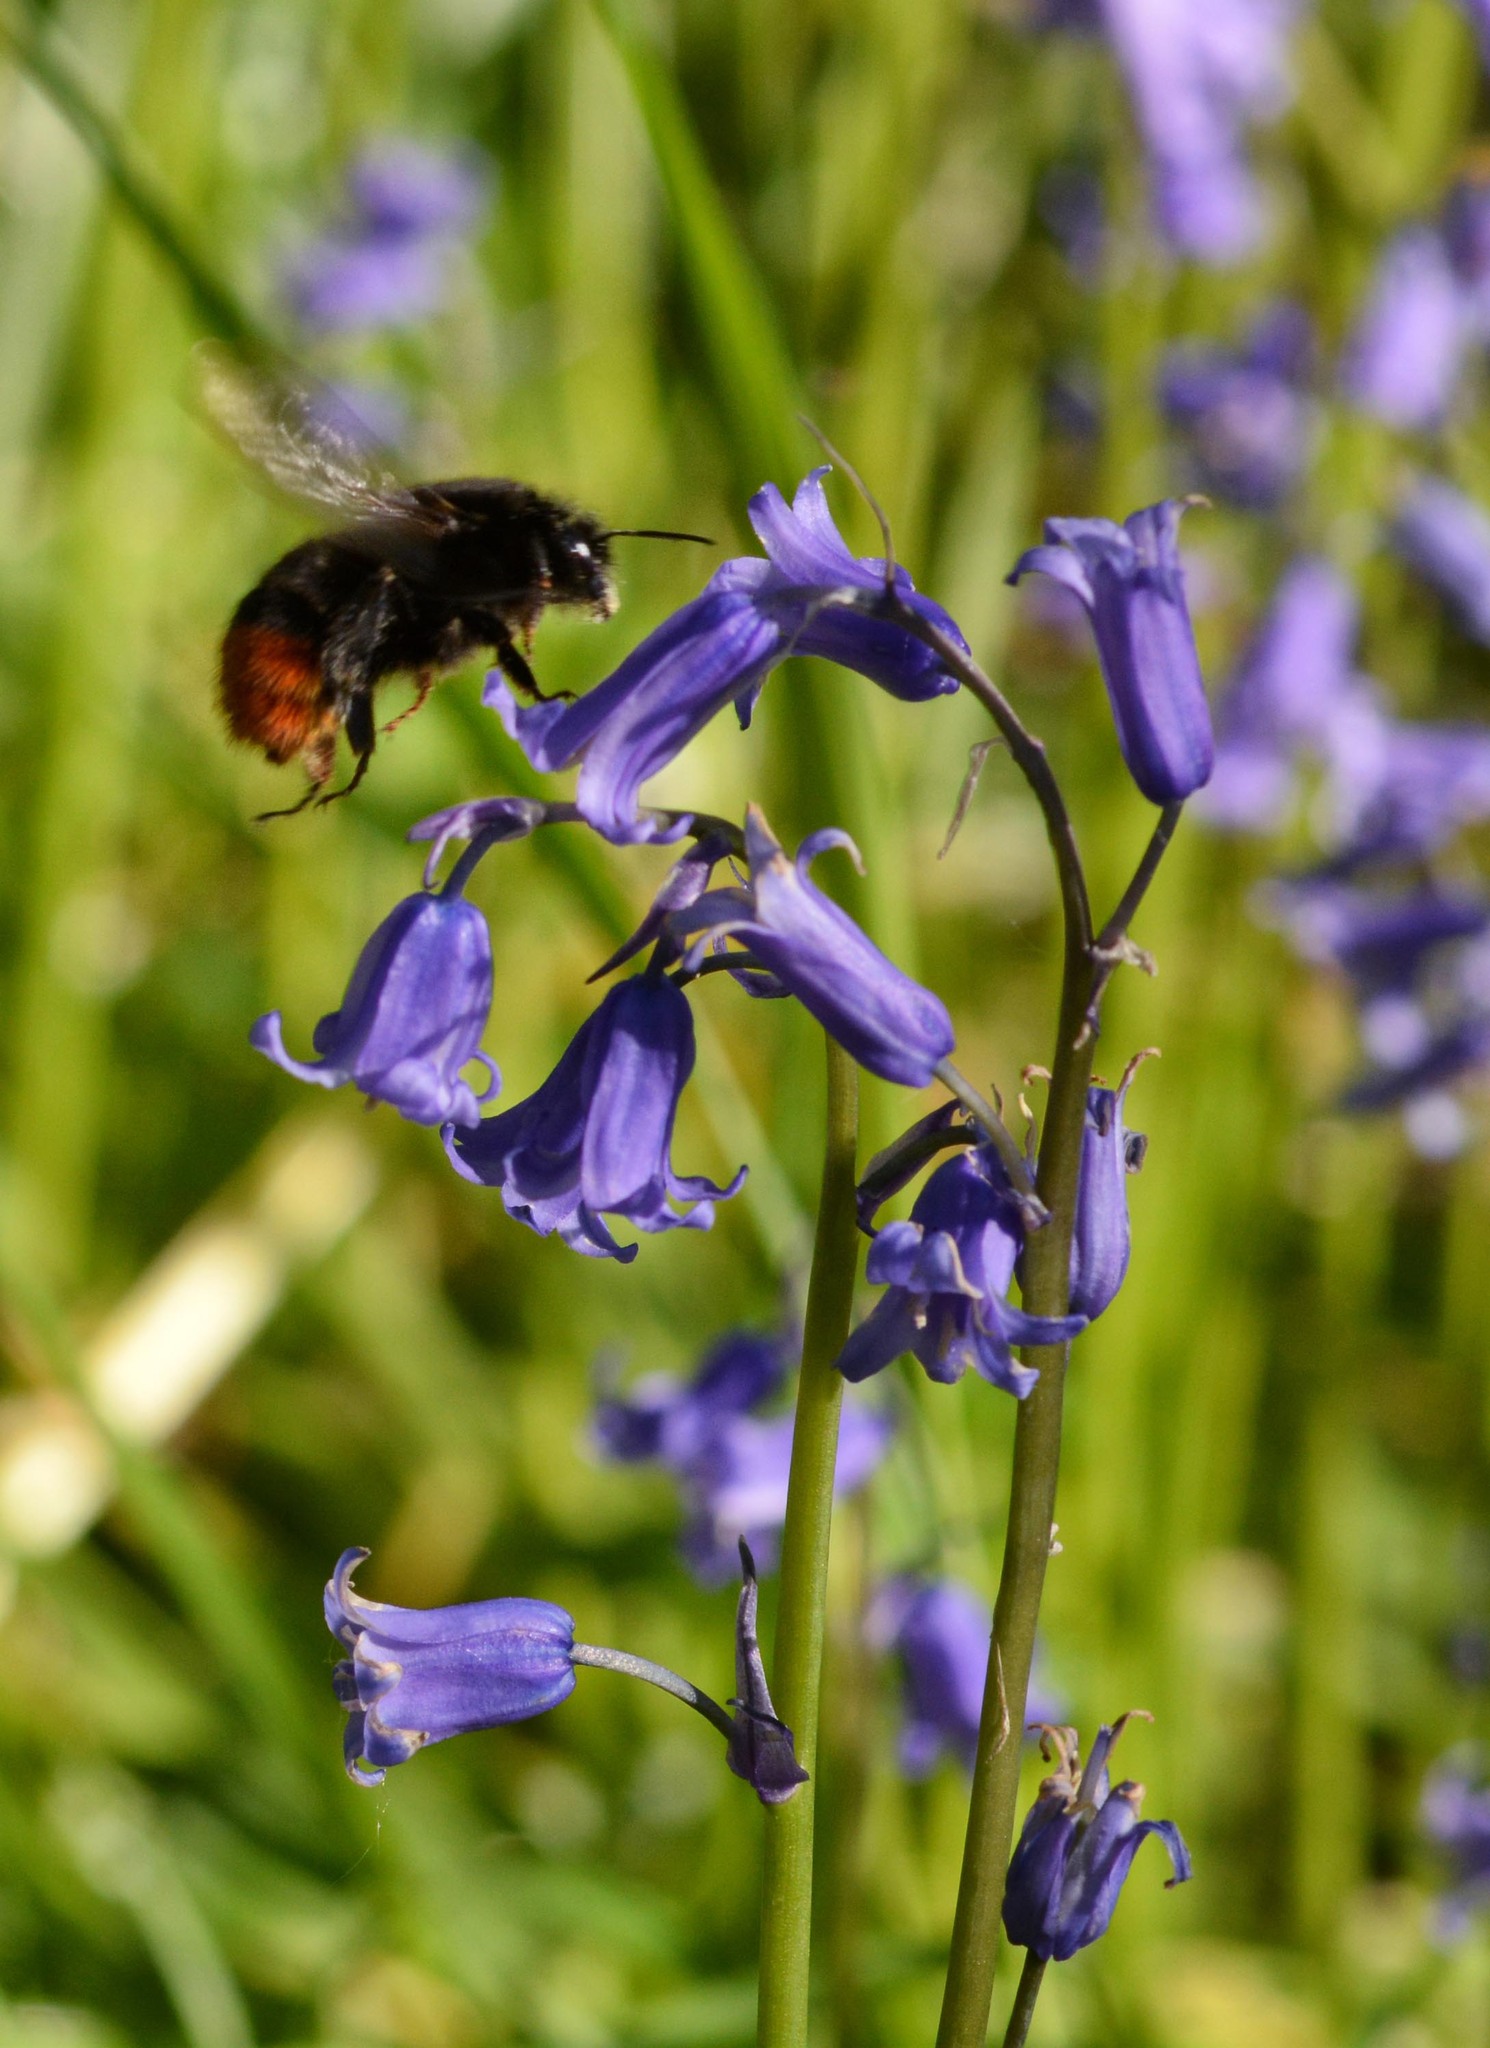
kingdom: Animalia
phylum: Arthropoda
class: Insecta
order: Hymenoptera
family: Apidae
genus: Bombus
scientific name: Bombus lapidarius
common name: Large red-tailed humble-bee
